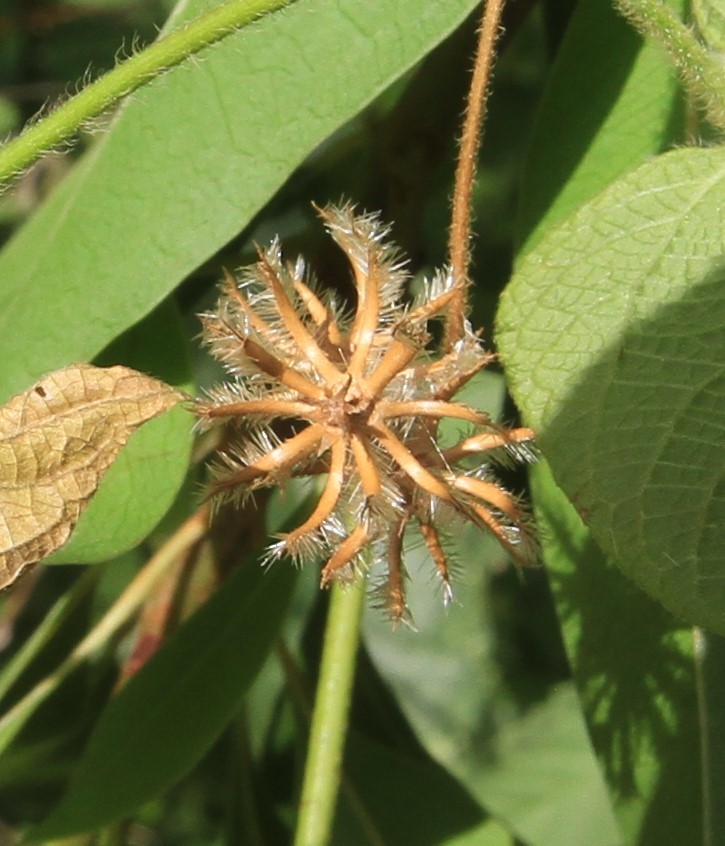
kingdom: Plantae
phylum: Tracheophyta
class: Magnoliopsida
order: Malpighiales
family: Euphorbiaceae
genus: Dalechampia
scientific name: Dalechampia scandens
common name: Spurgecreeper
